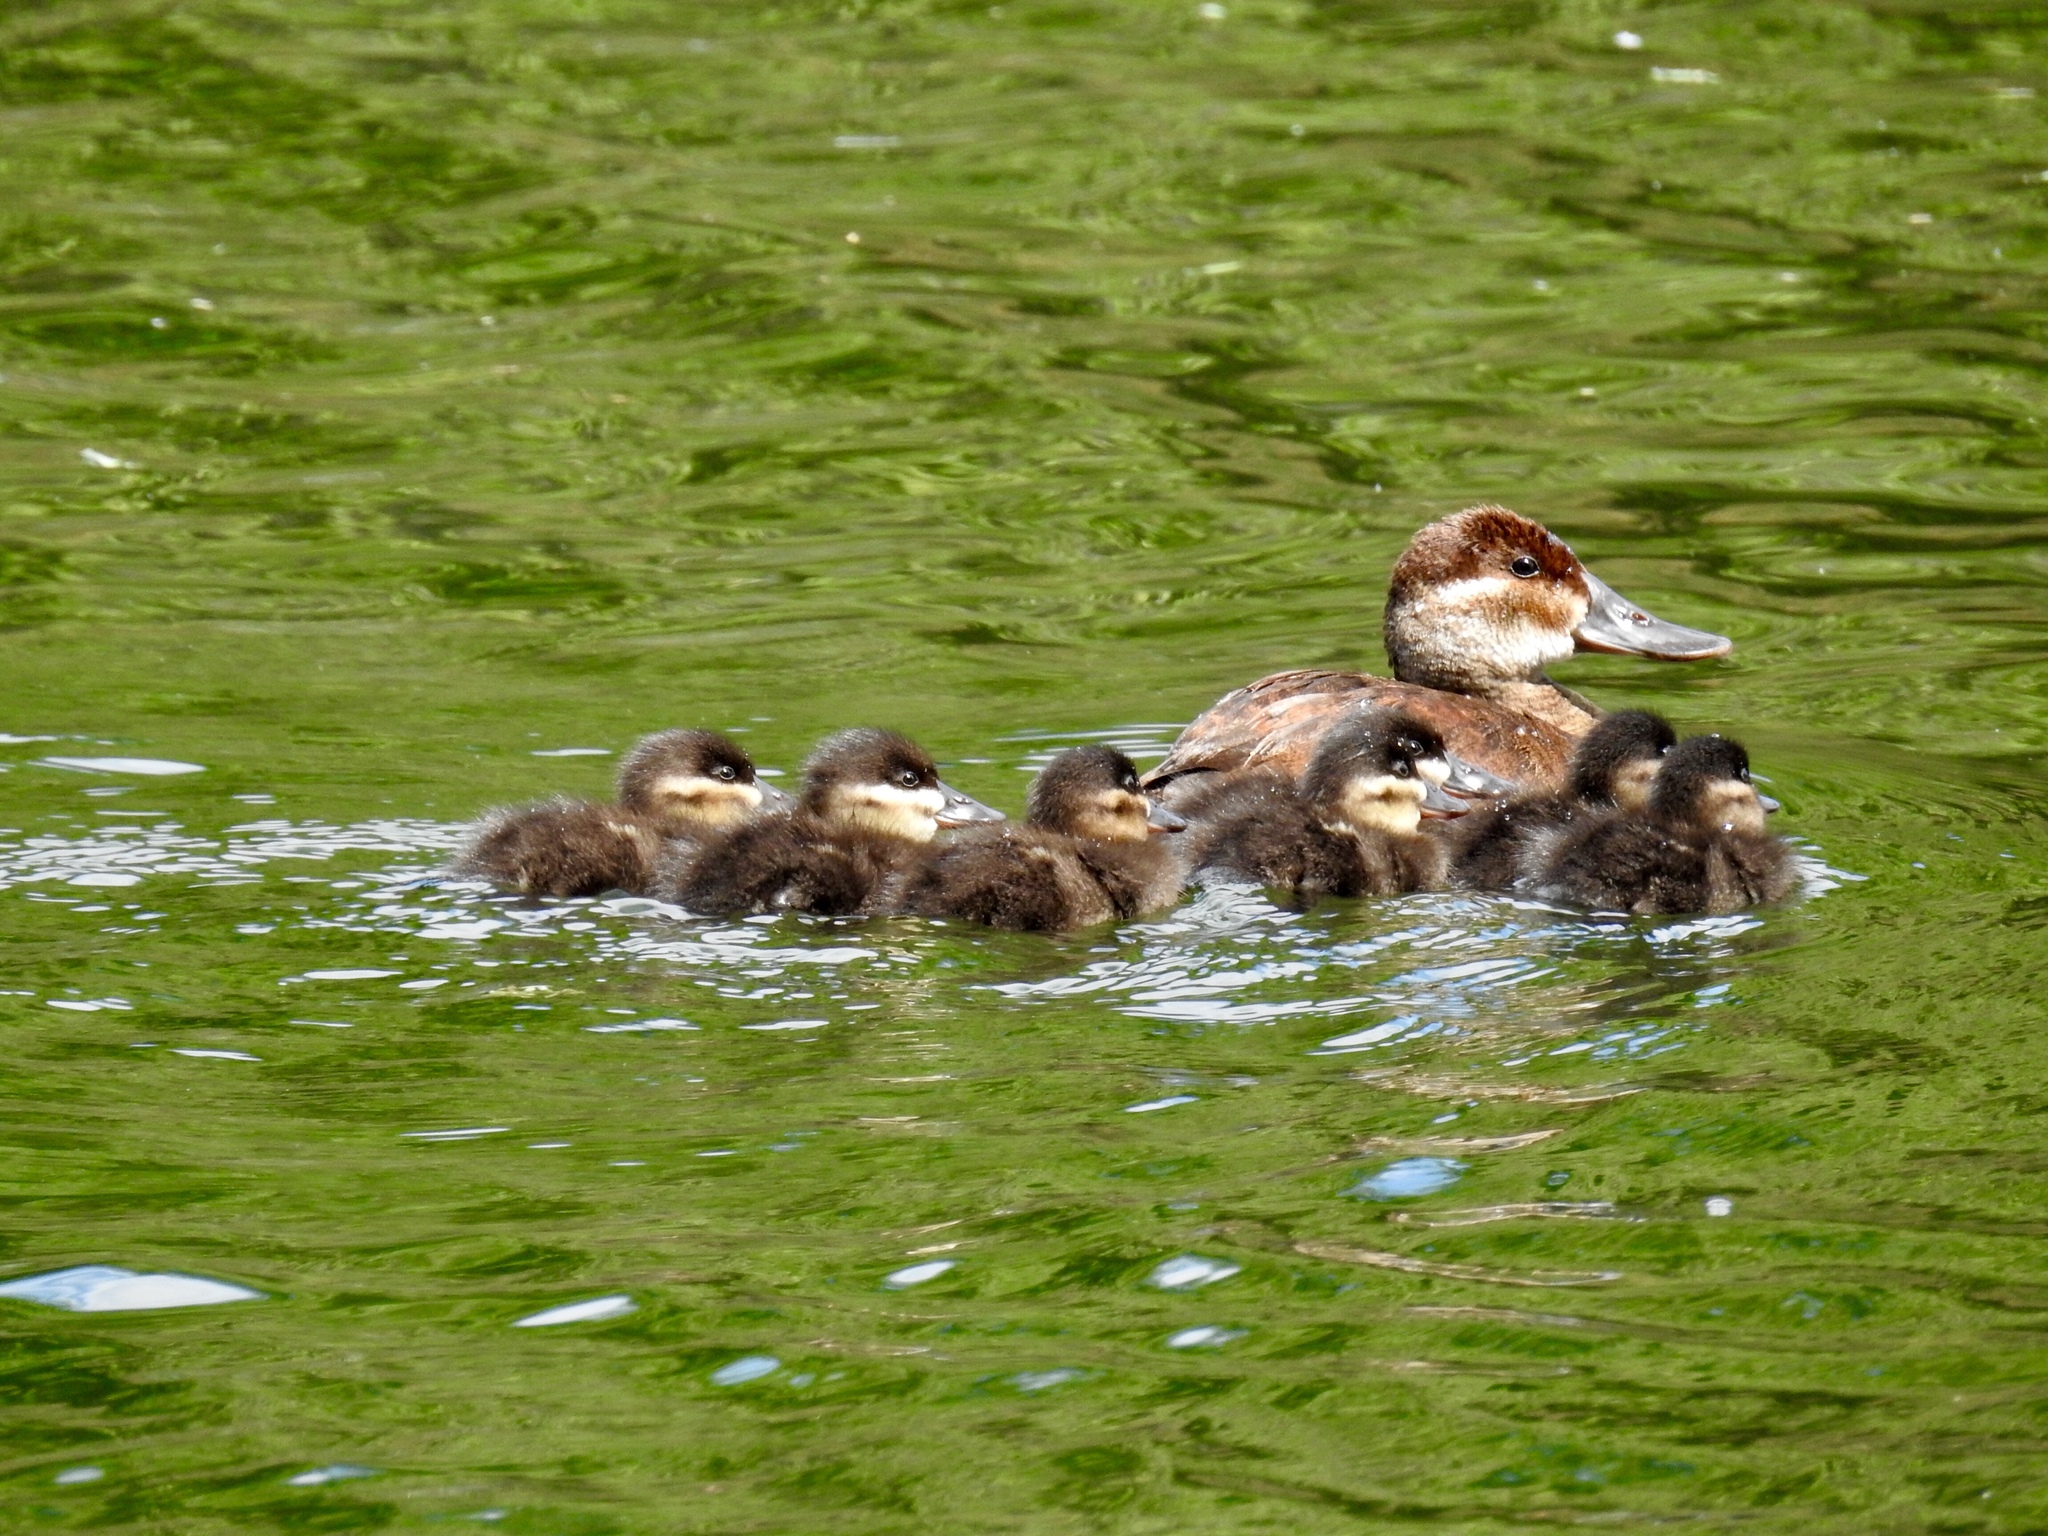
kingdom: Animalia
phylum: Chordata
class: Aves
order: Anseriformes
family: Anatidae
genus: Oxyura
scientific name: Oxyura jamaicensis
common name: Ruddy duck
